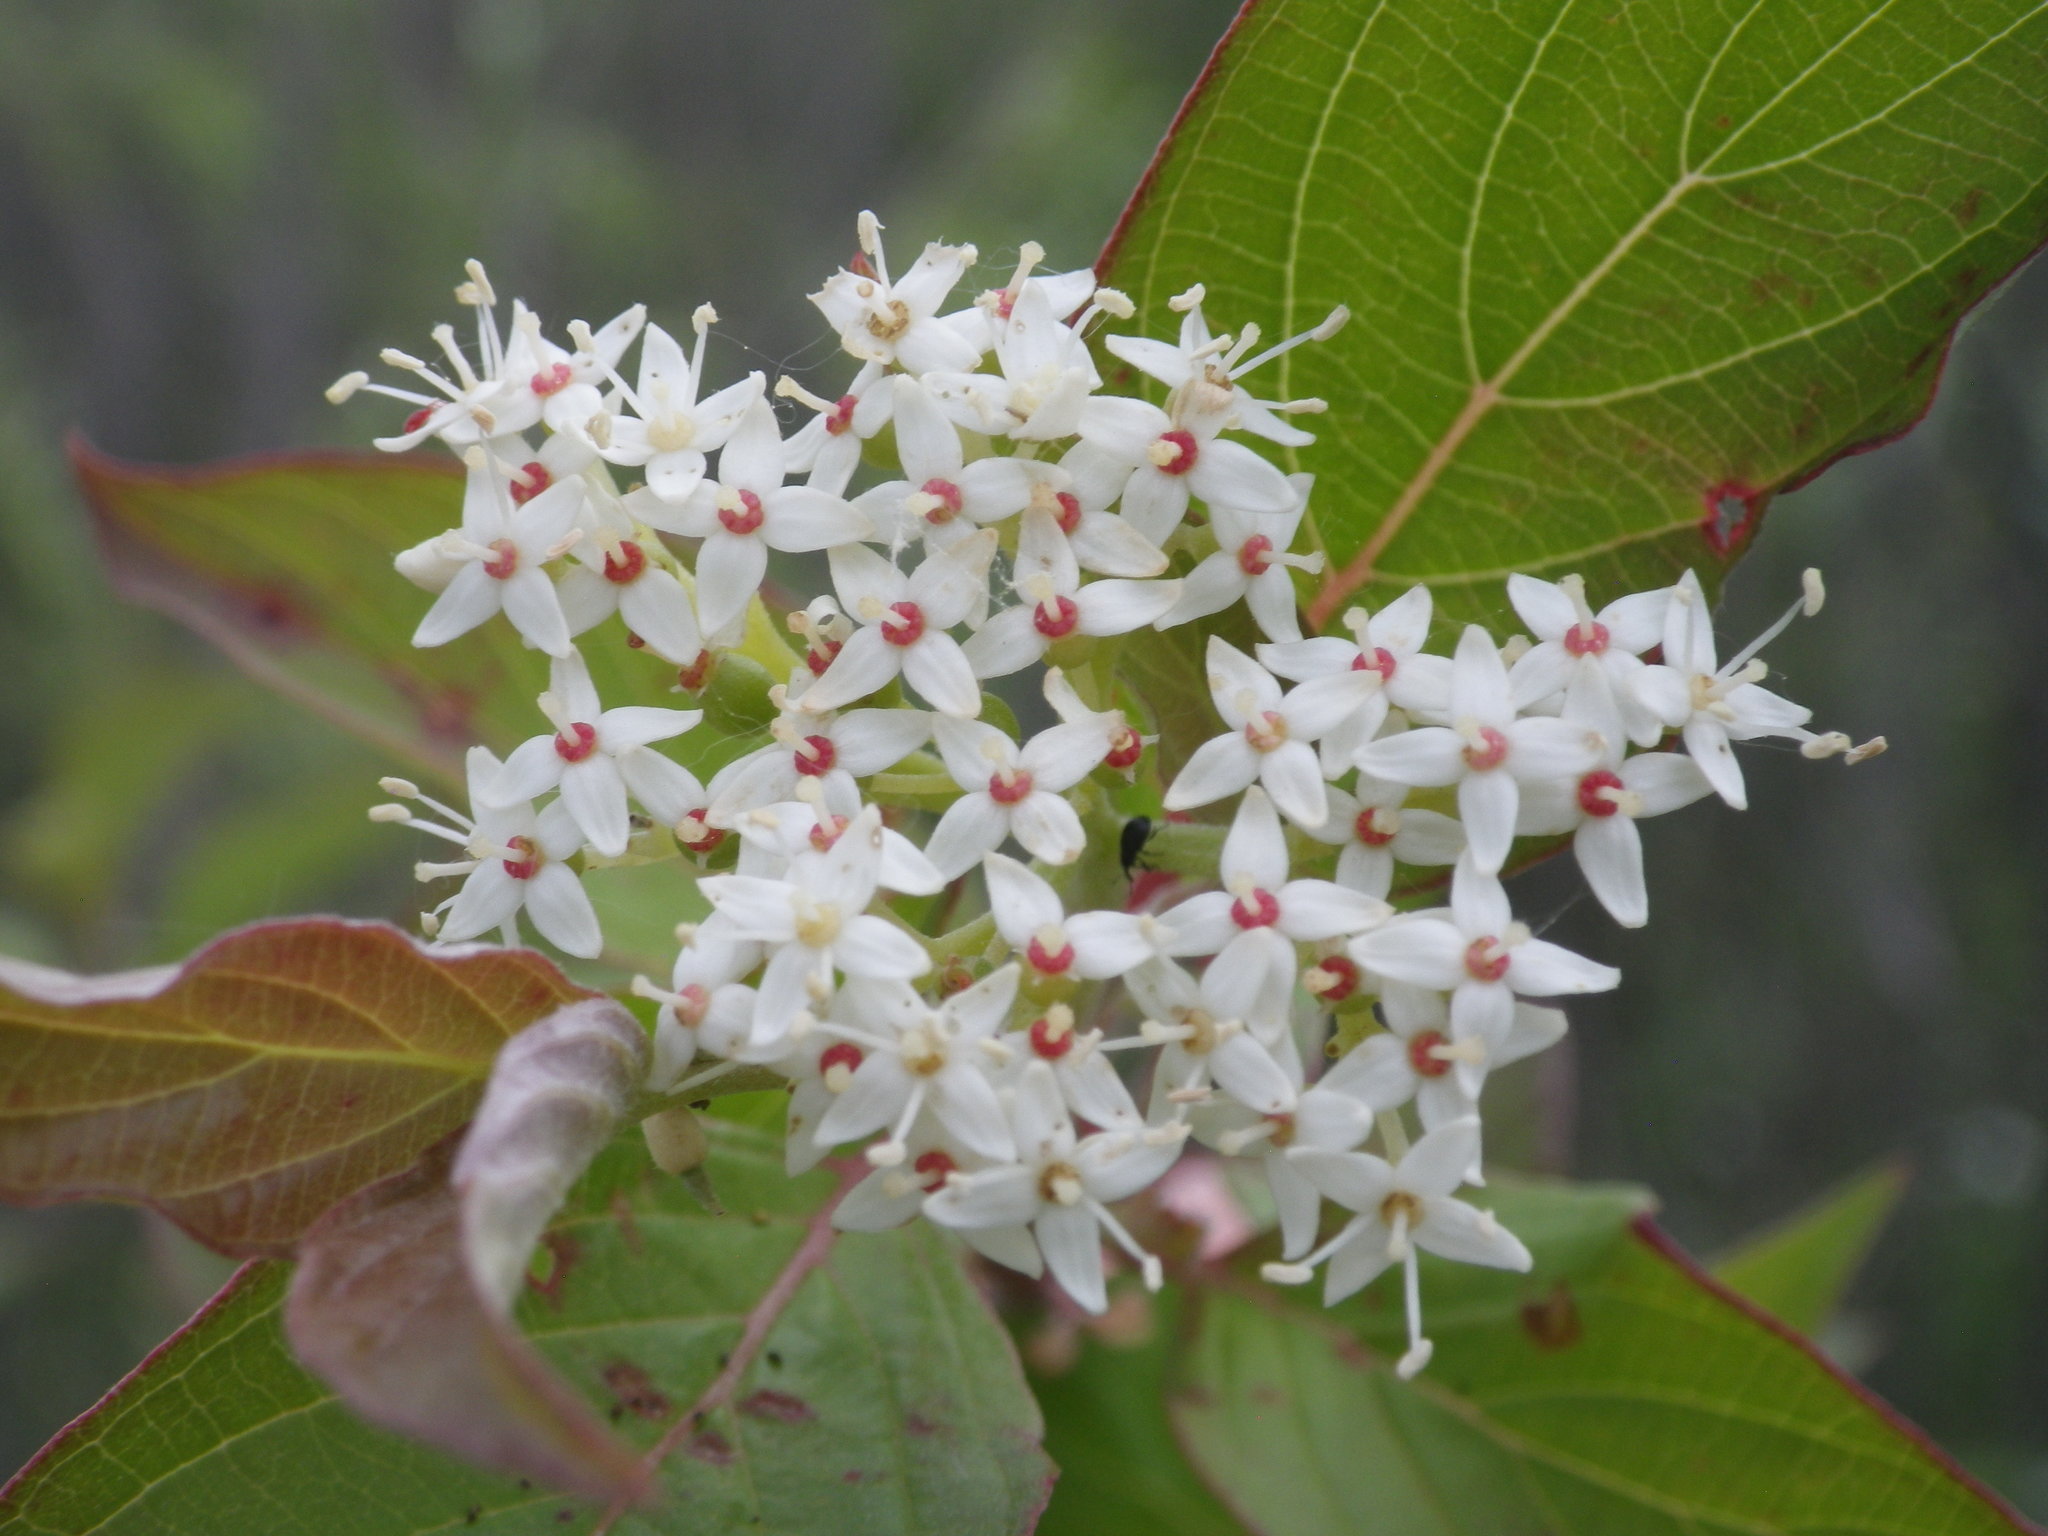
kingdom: Plantae
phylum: Tracheophyta
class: Magnoliopsida
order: Cornales
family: Cornaceae
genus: Cornus
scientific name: Cornus sericea
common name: Red-osier dogwood
